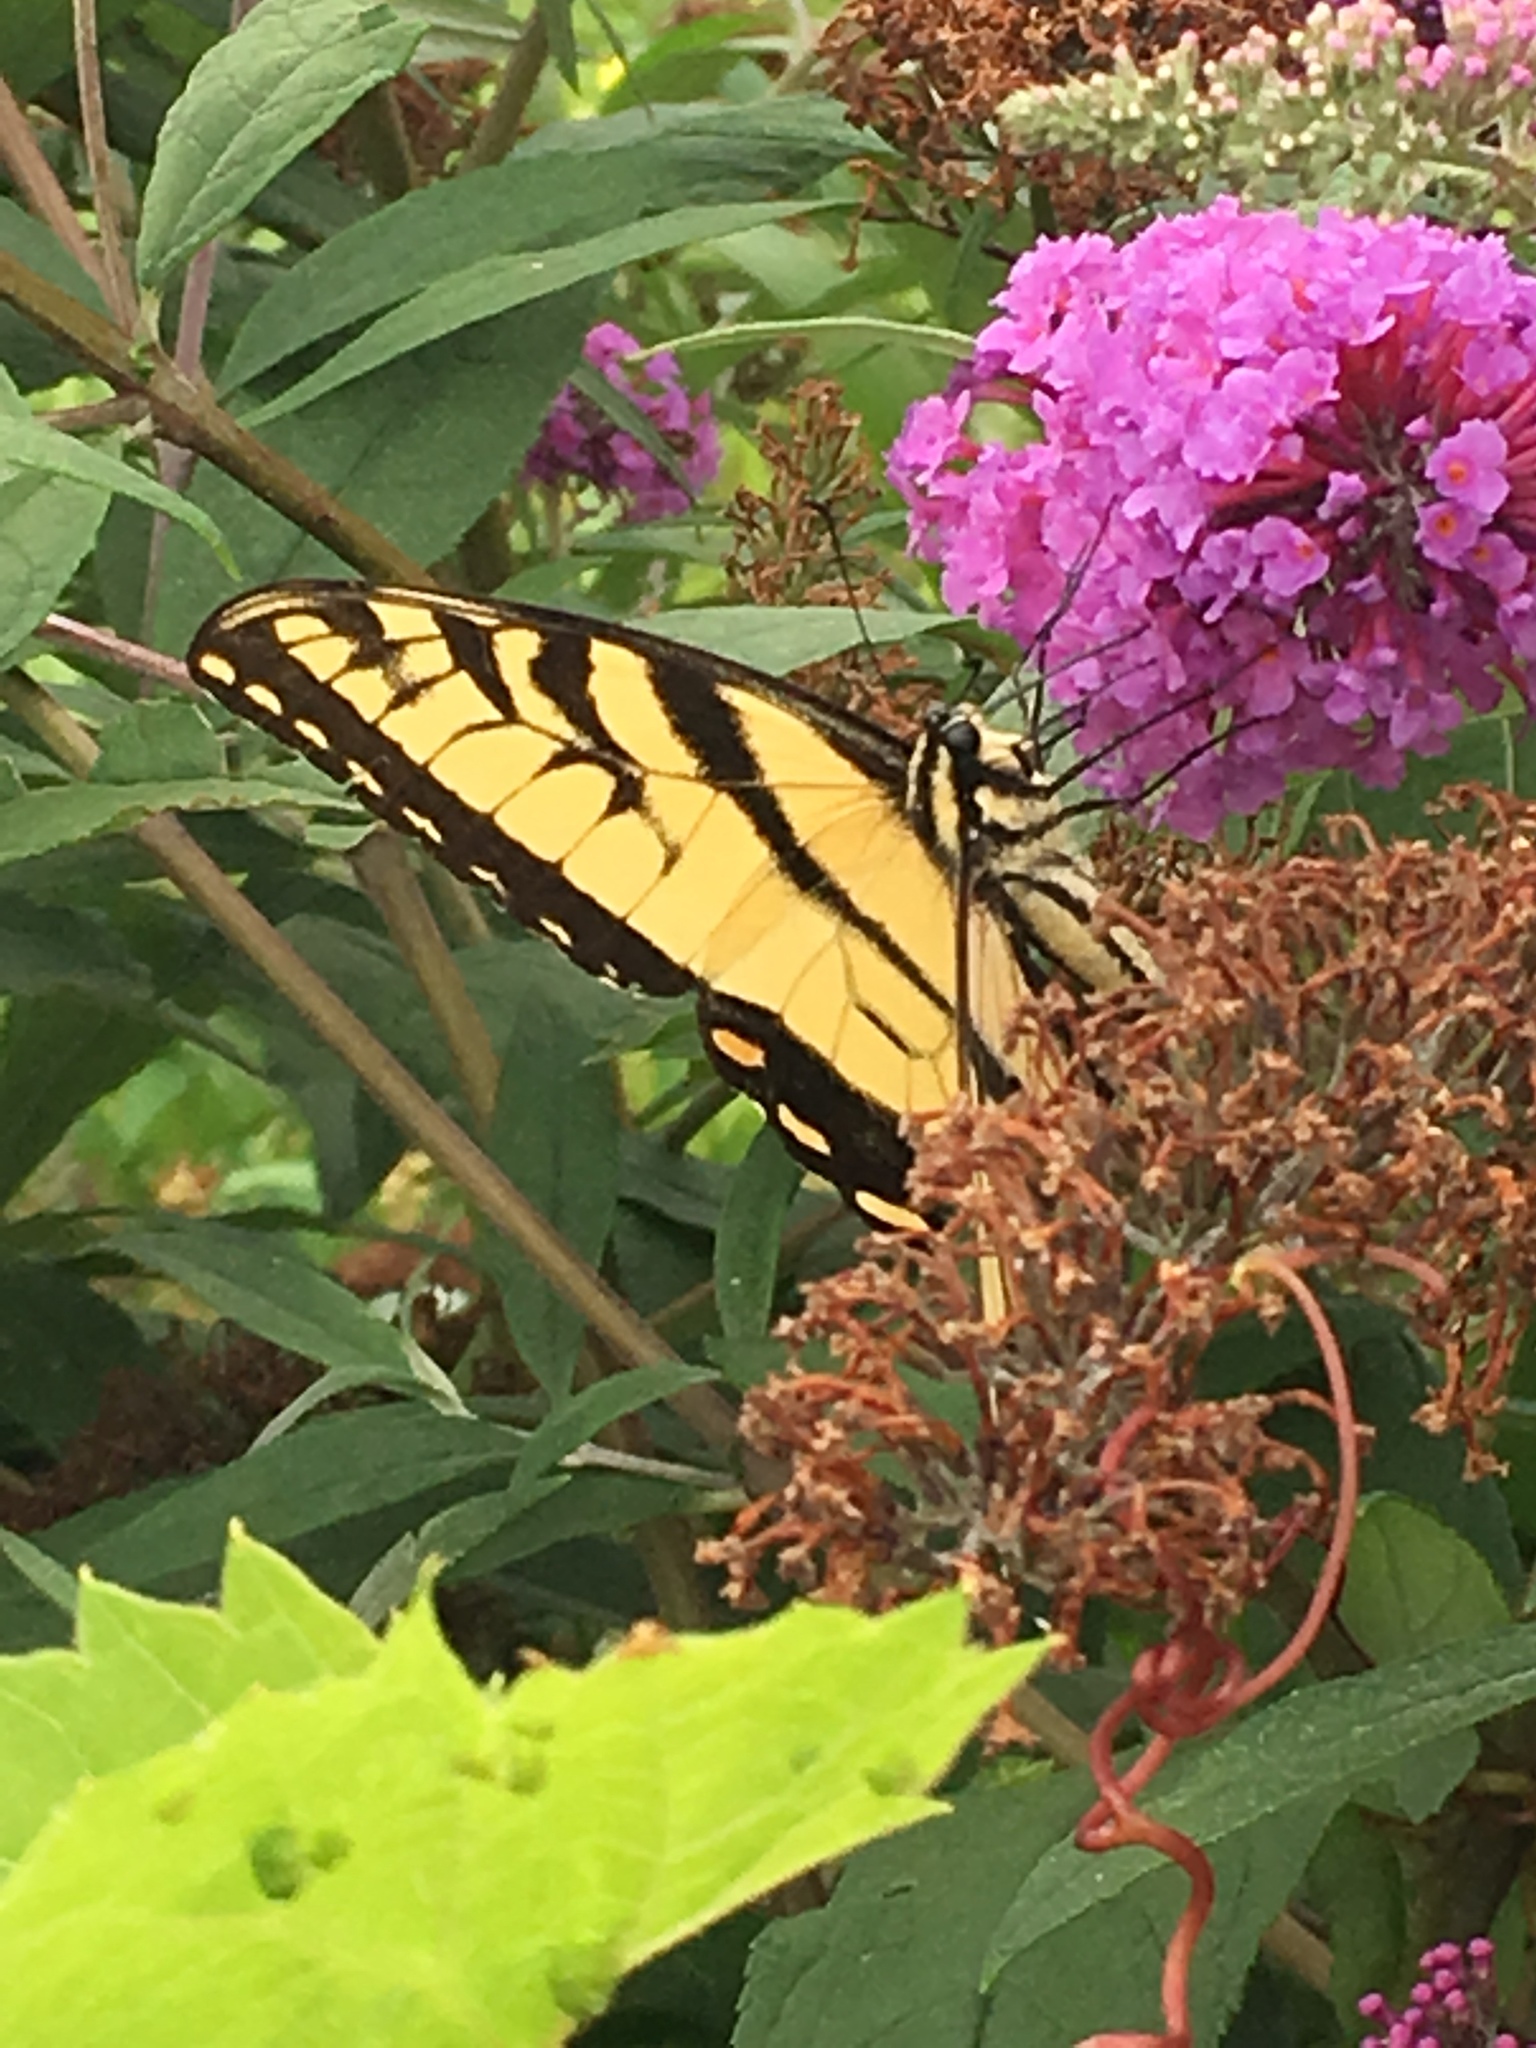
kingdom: Animalia
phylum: Arthropoda
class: Insecta
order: Lepidoptera
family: Papilionidae
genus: Papilio
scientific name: Papilio glaucus
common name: Tiger swallowtail
